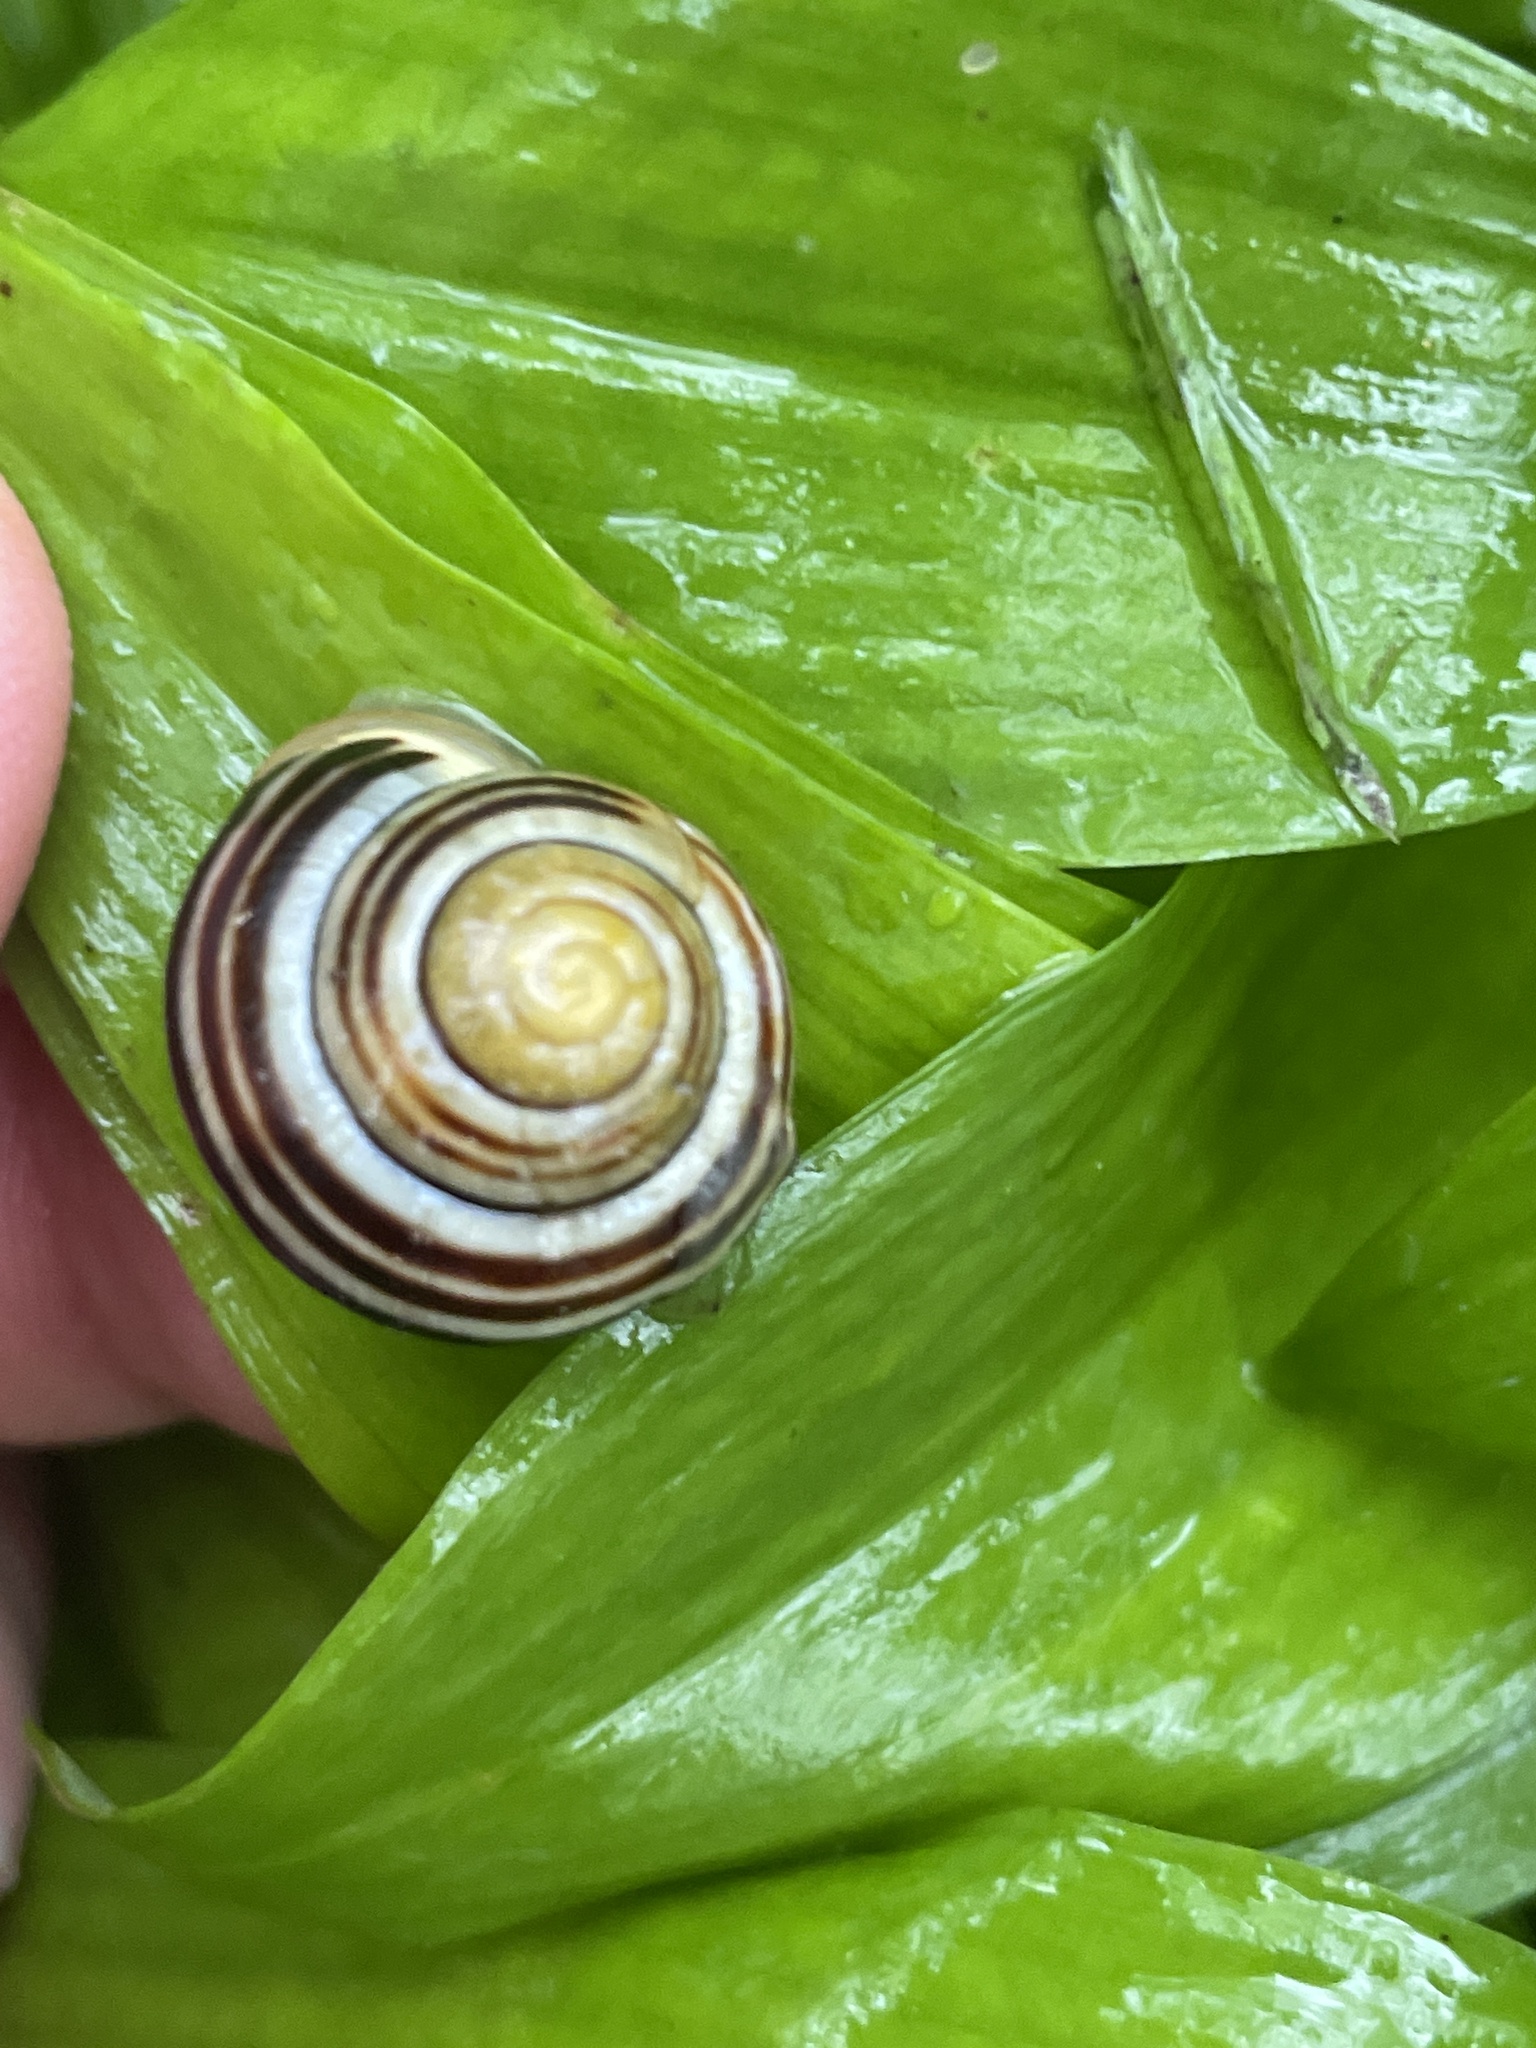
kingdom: Animalia
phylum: Mollusca
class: Gastropoda
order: Stylommatophora
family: Helicidae
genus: Cepaea
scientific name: Cepaea hortensis
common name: White-lip gardensnail
